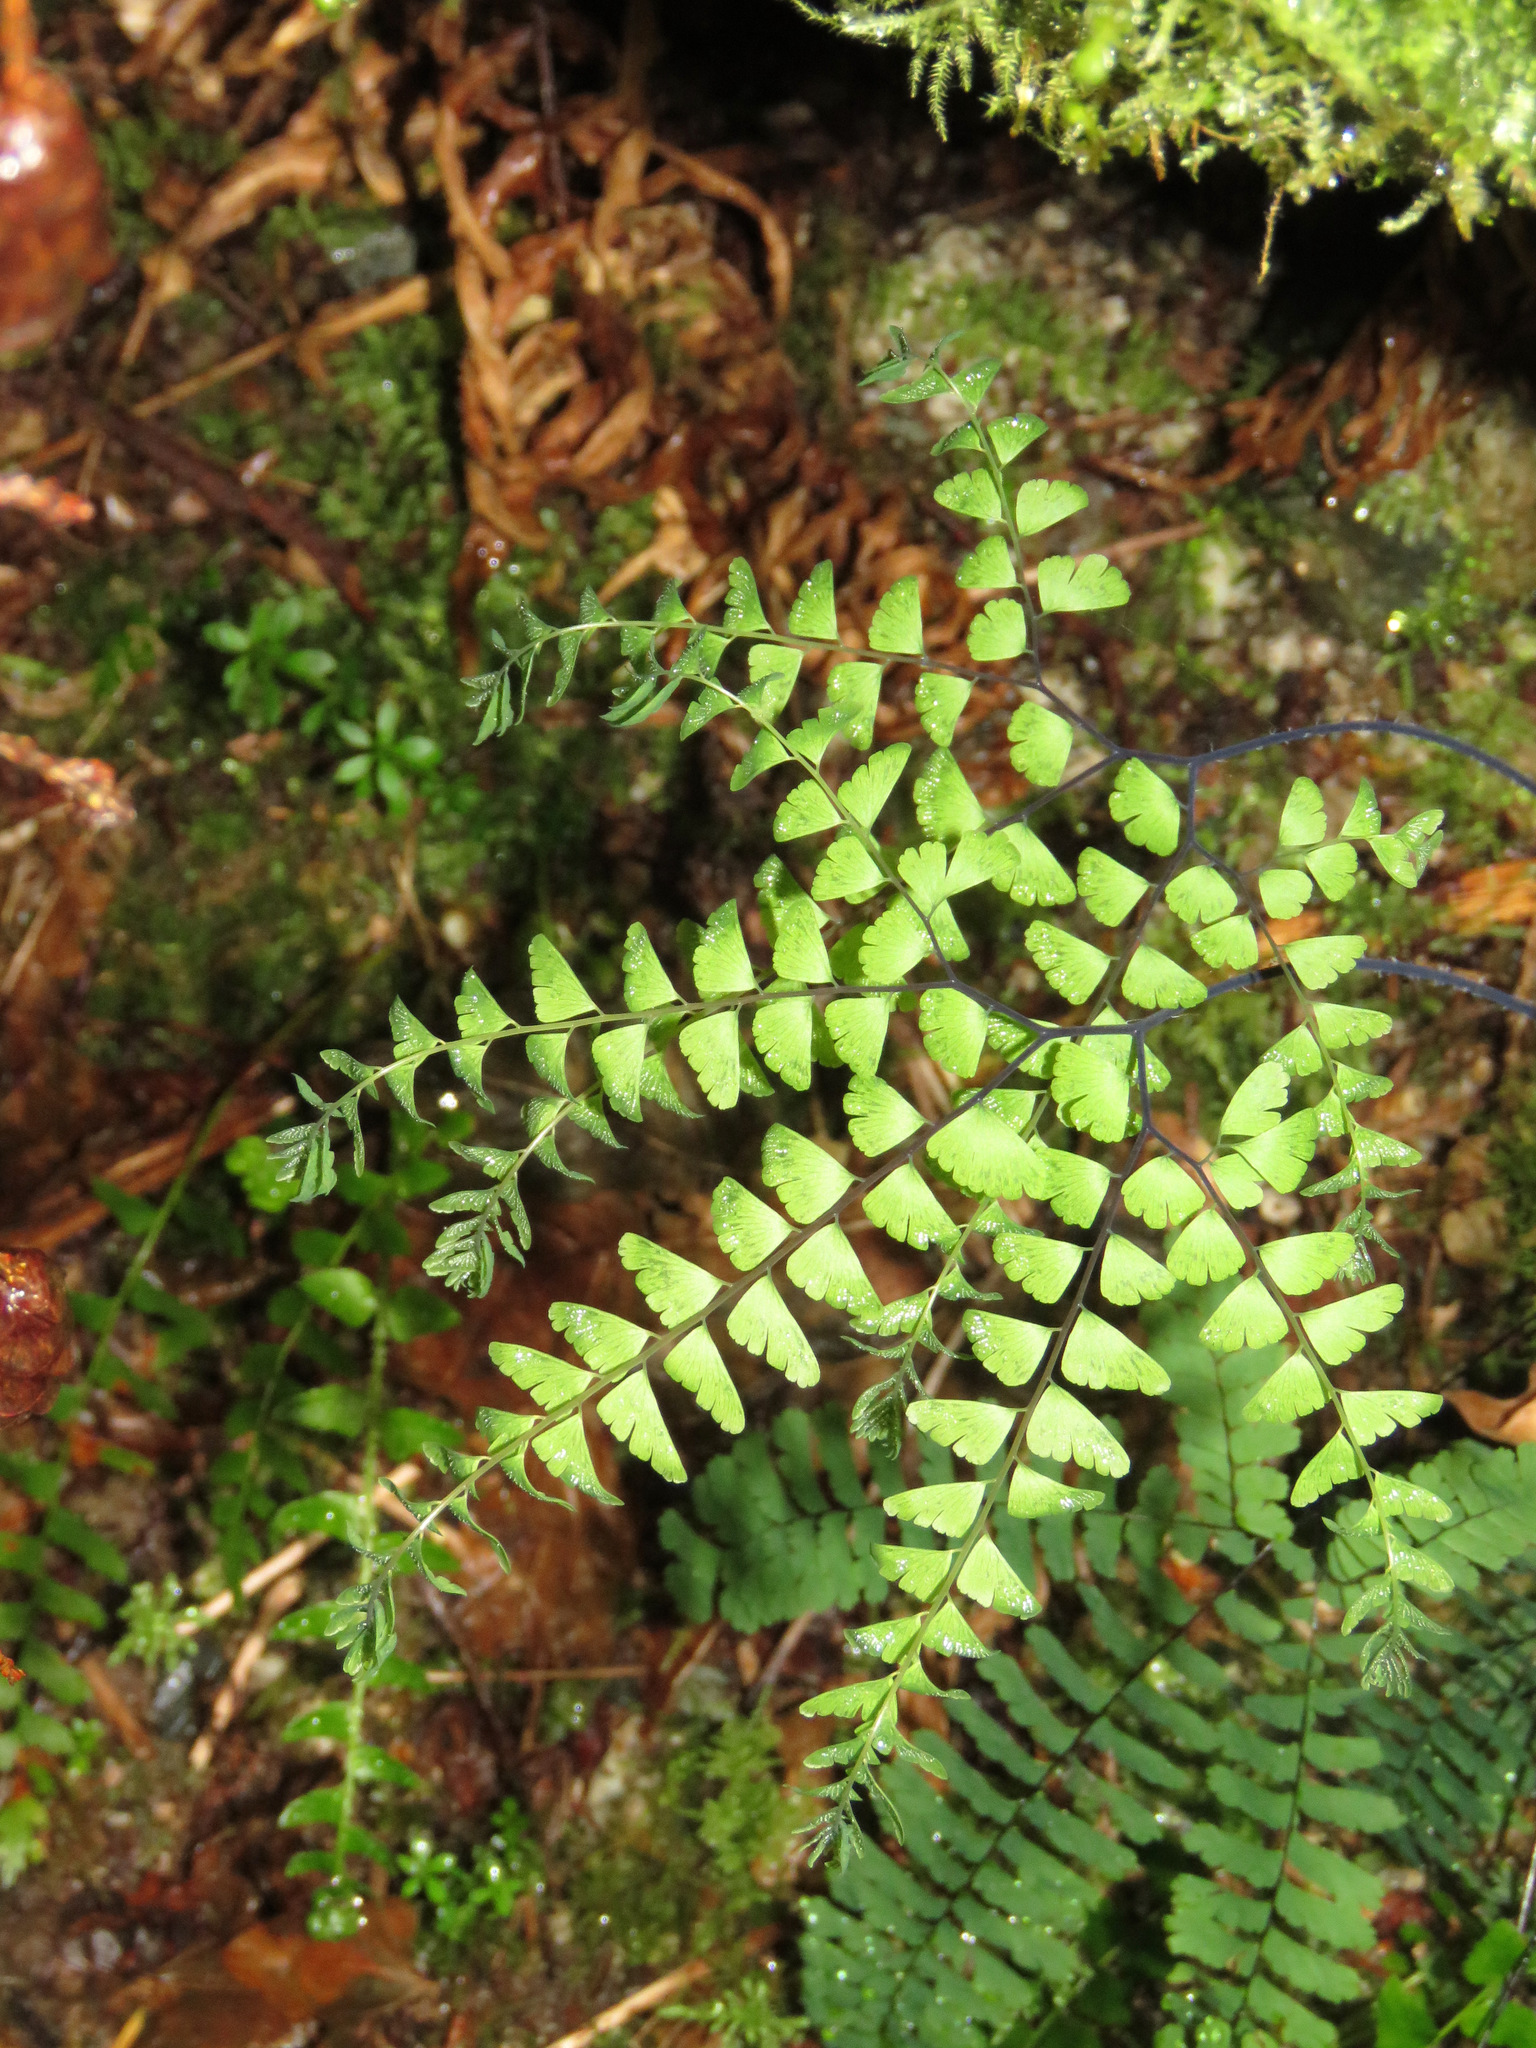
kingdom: Plantae
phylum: Tracheophyta
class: Polypodiopsida
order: Polypodiales
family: Pteridaceae
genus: Adiantum
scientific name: Adiantum aleuticum
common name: Aleutian maidenhair fern
